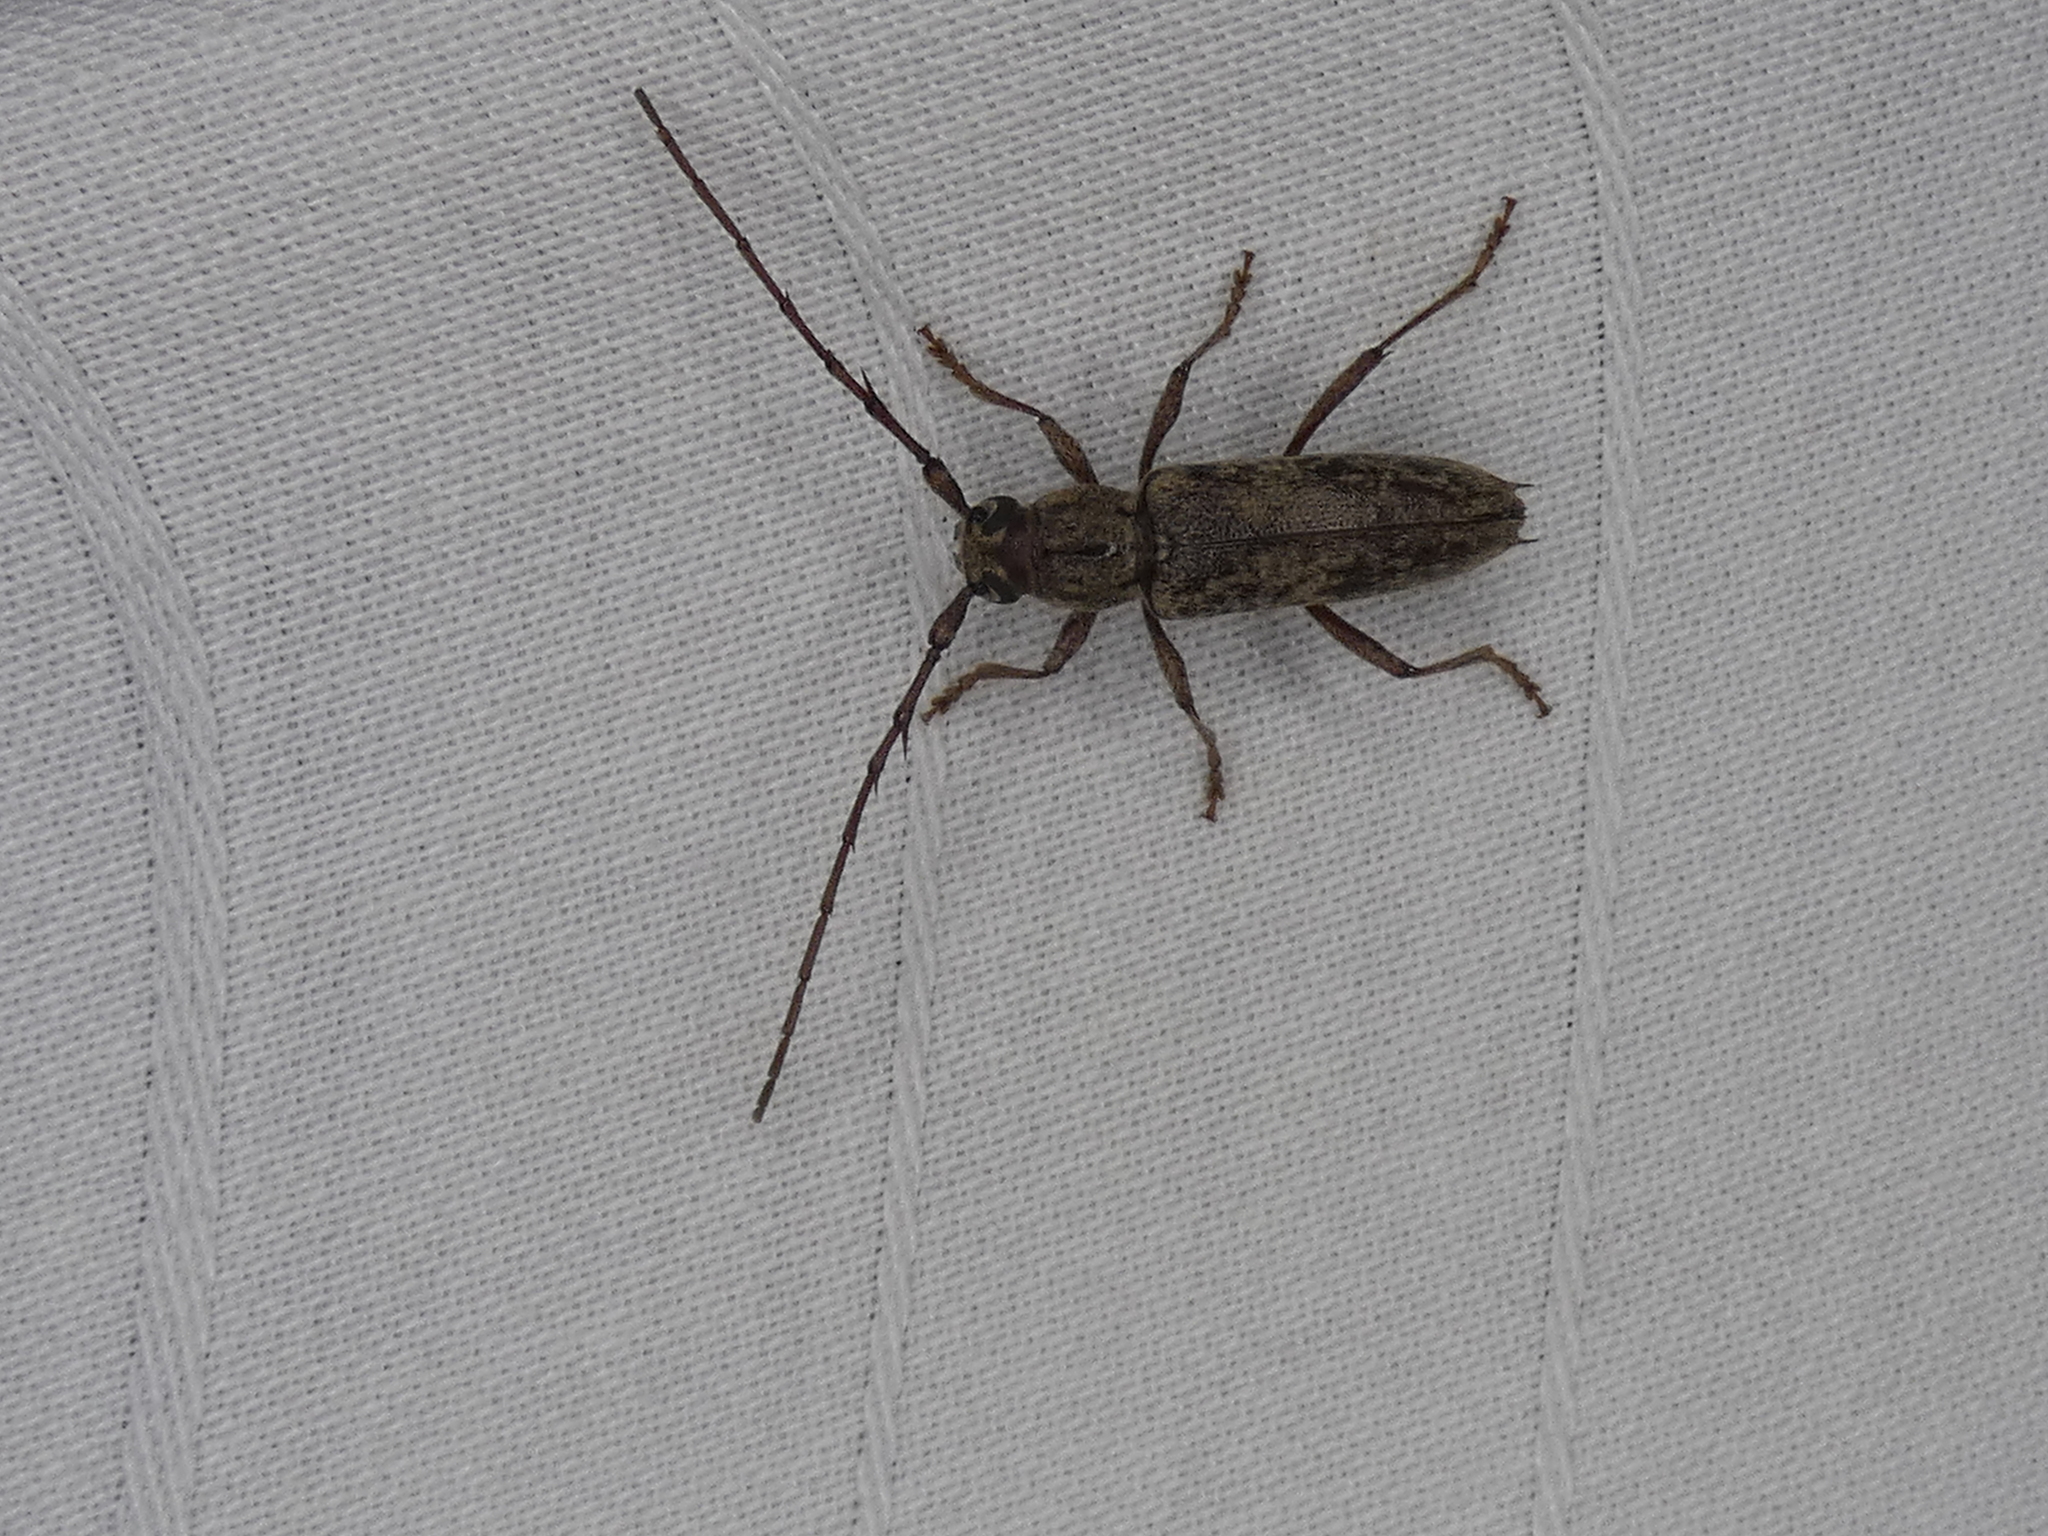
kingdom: Animalia
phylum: Arthropoda
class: Insecta
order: Coleoptera
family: Cerambycidae
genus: Elaphidion
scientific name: Elaphidion mucronatum
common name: Spined oak borer
